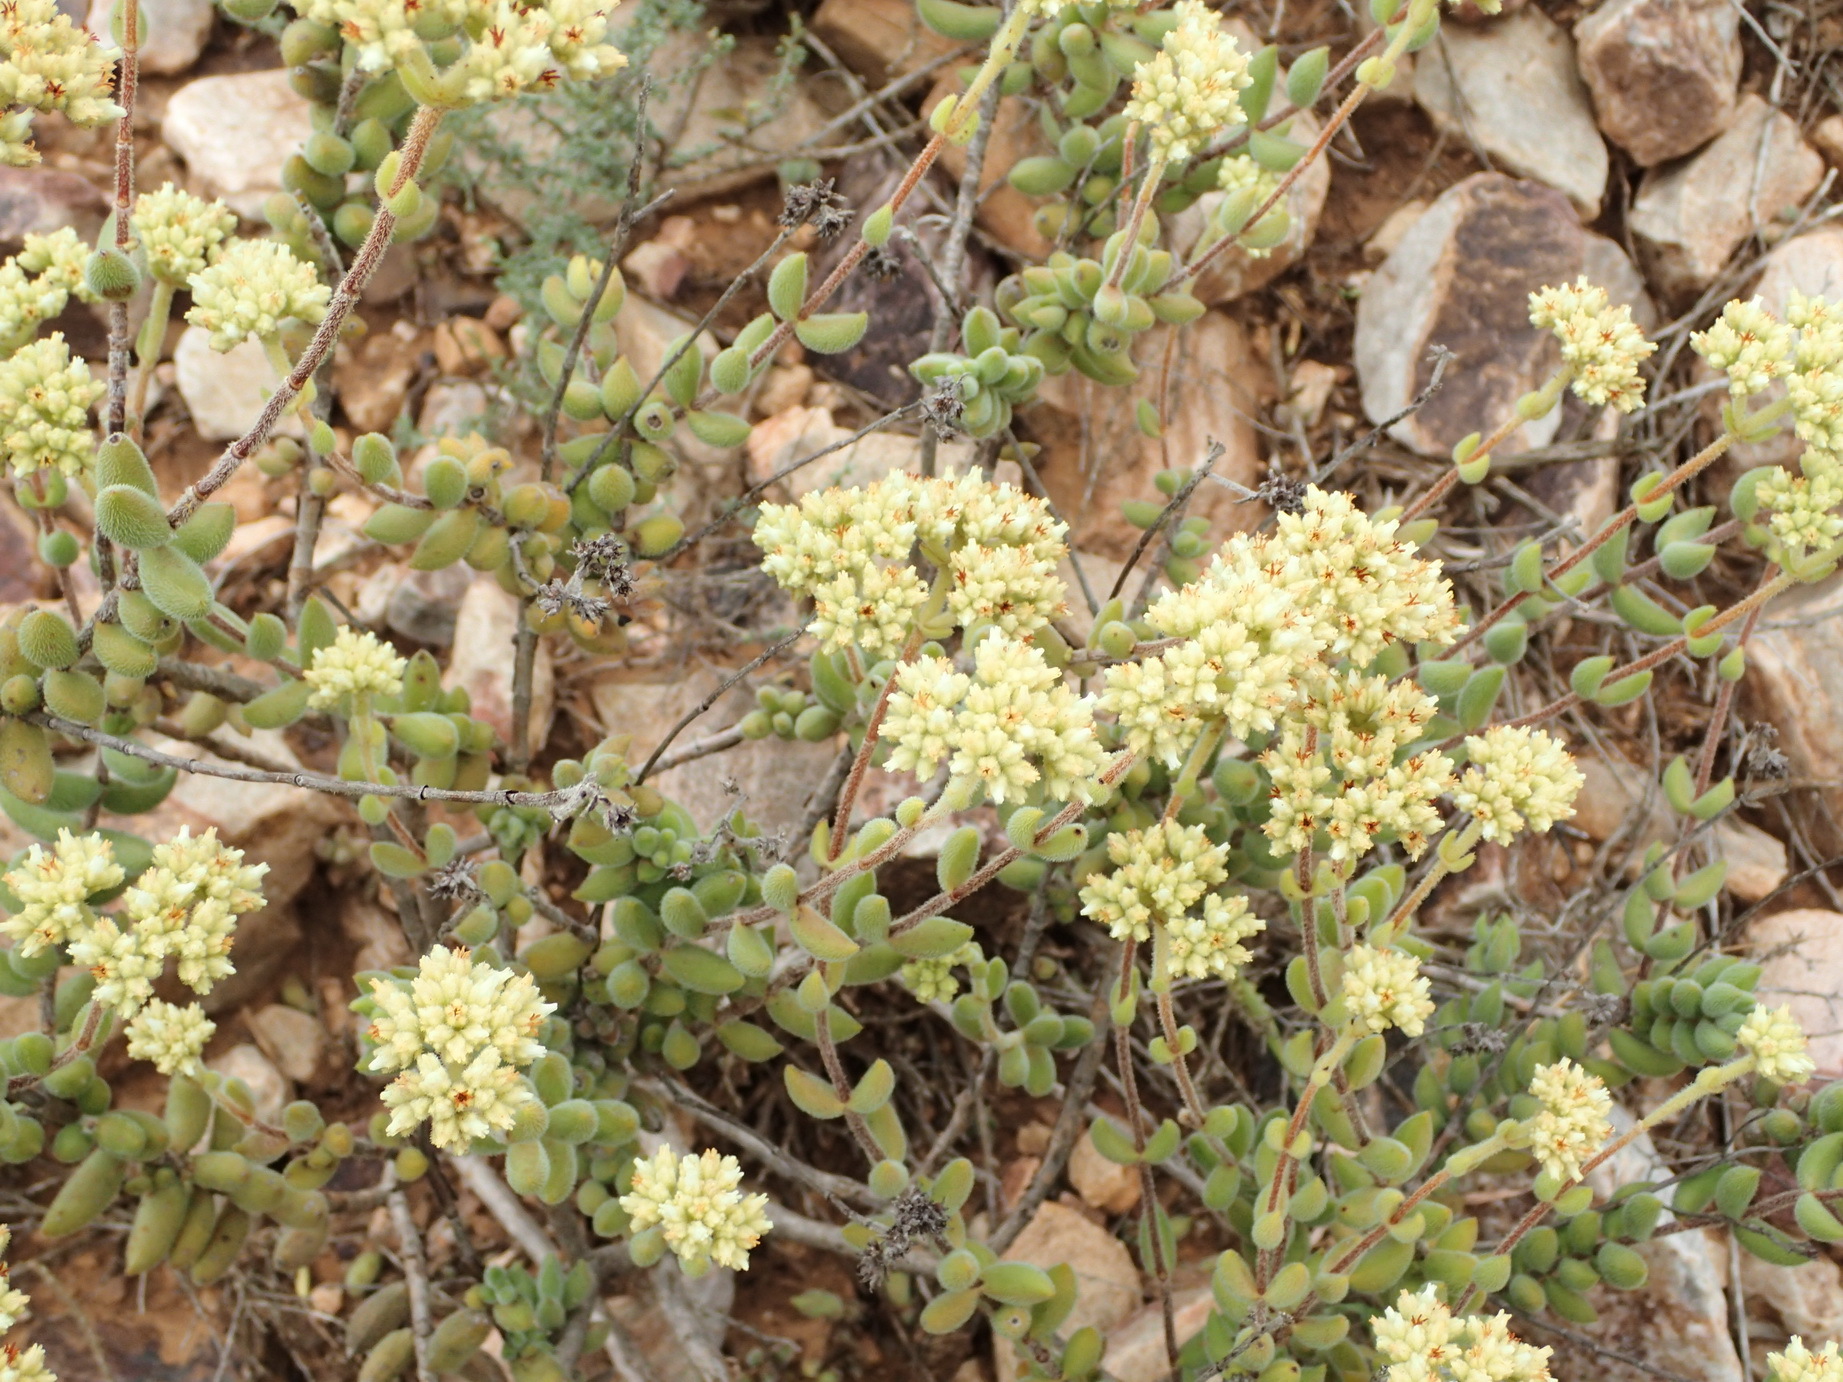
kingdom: Plantae
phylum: Tracheophyta
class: Magnoliopsida
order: Saxifragales
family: Crassulaceae
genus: Crassula
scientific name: Crassula mesembryanthoides
